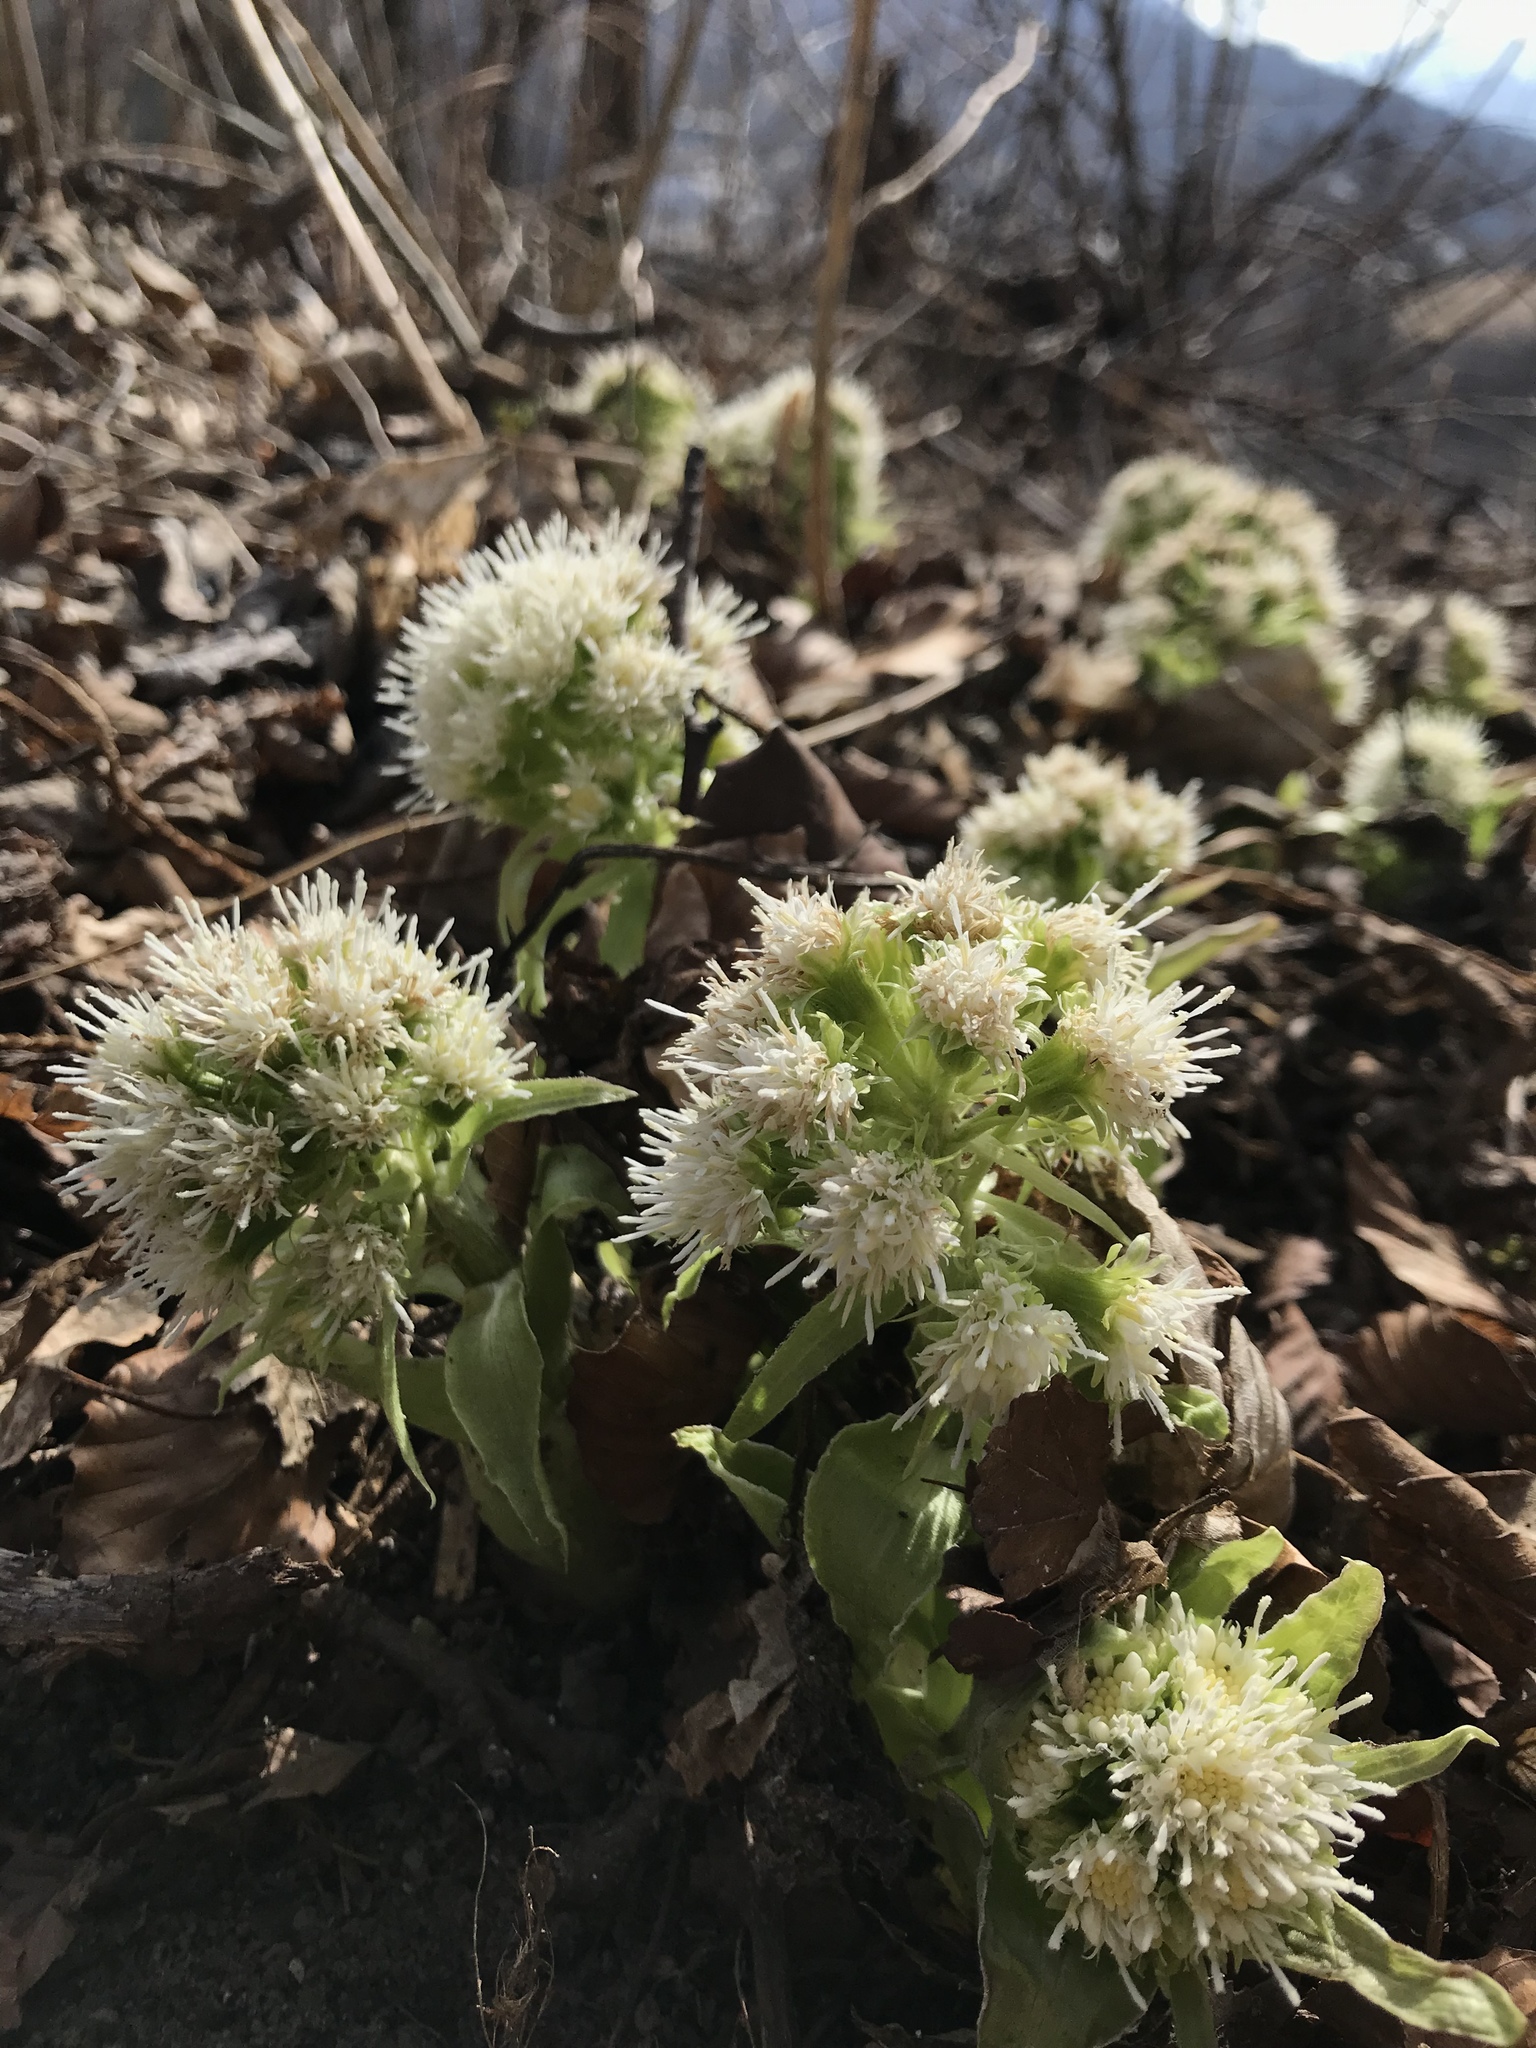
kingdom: Plantae
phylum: Tracheophyta
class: Magnoliopsida
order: Asterales
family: Asteraceae
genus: Petasites
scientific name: Petasites albus
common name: White butterbur
